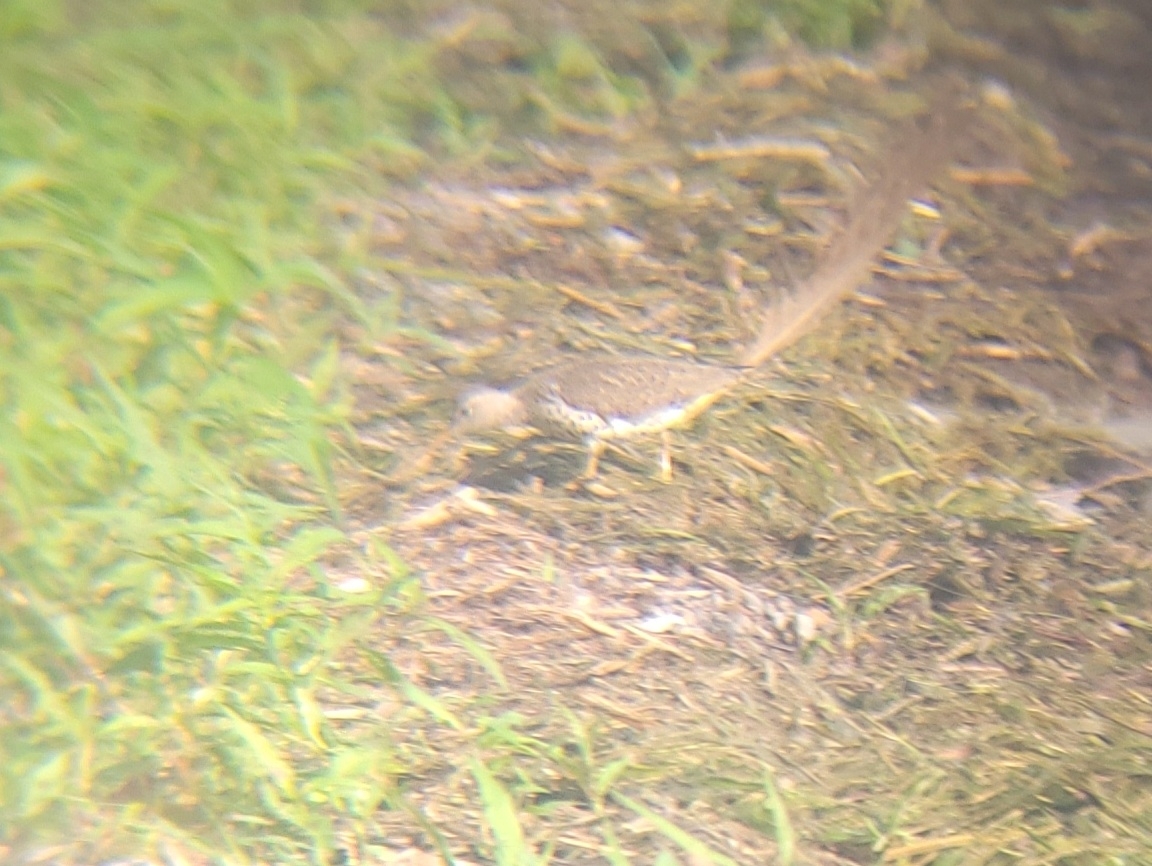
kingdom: Animalia
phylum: Chordata
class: Aves
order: Charadriiformes
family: Scolopacidae
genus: Actitis
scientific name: Actitis macularius
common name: Spotted sandpiper
